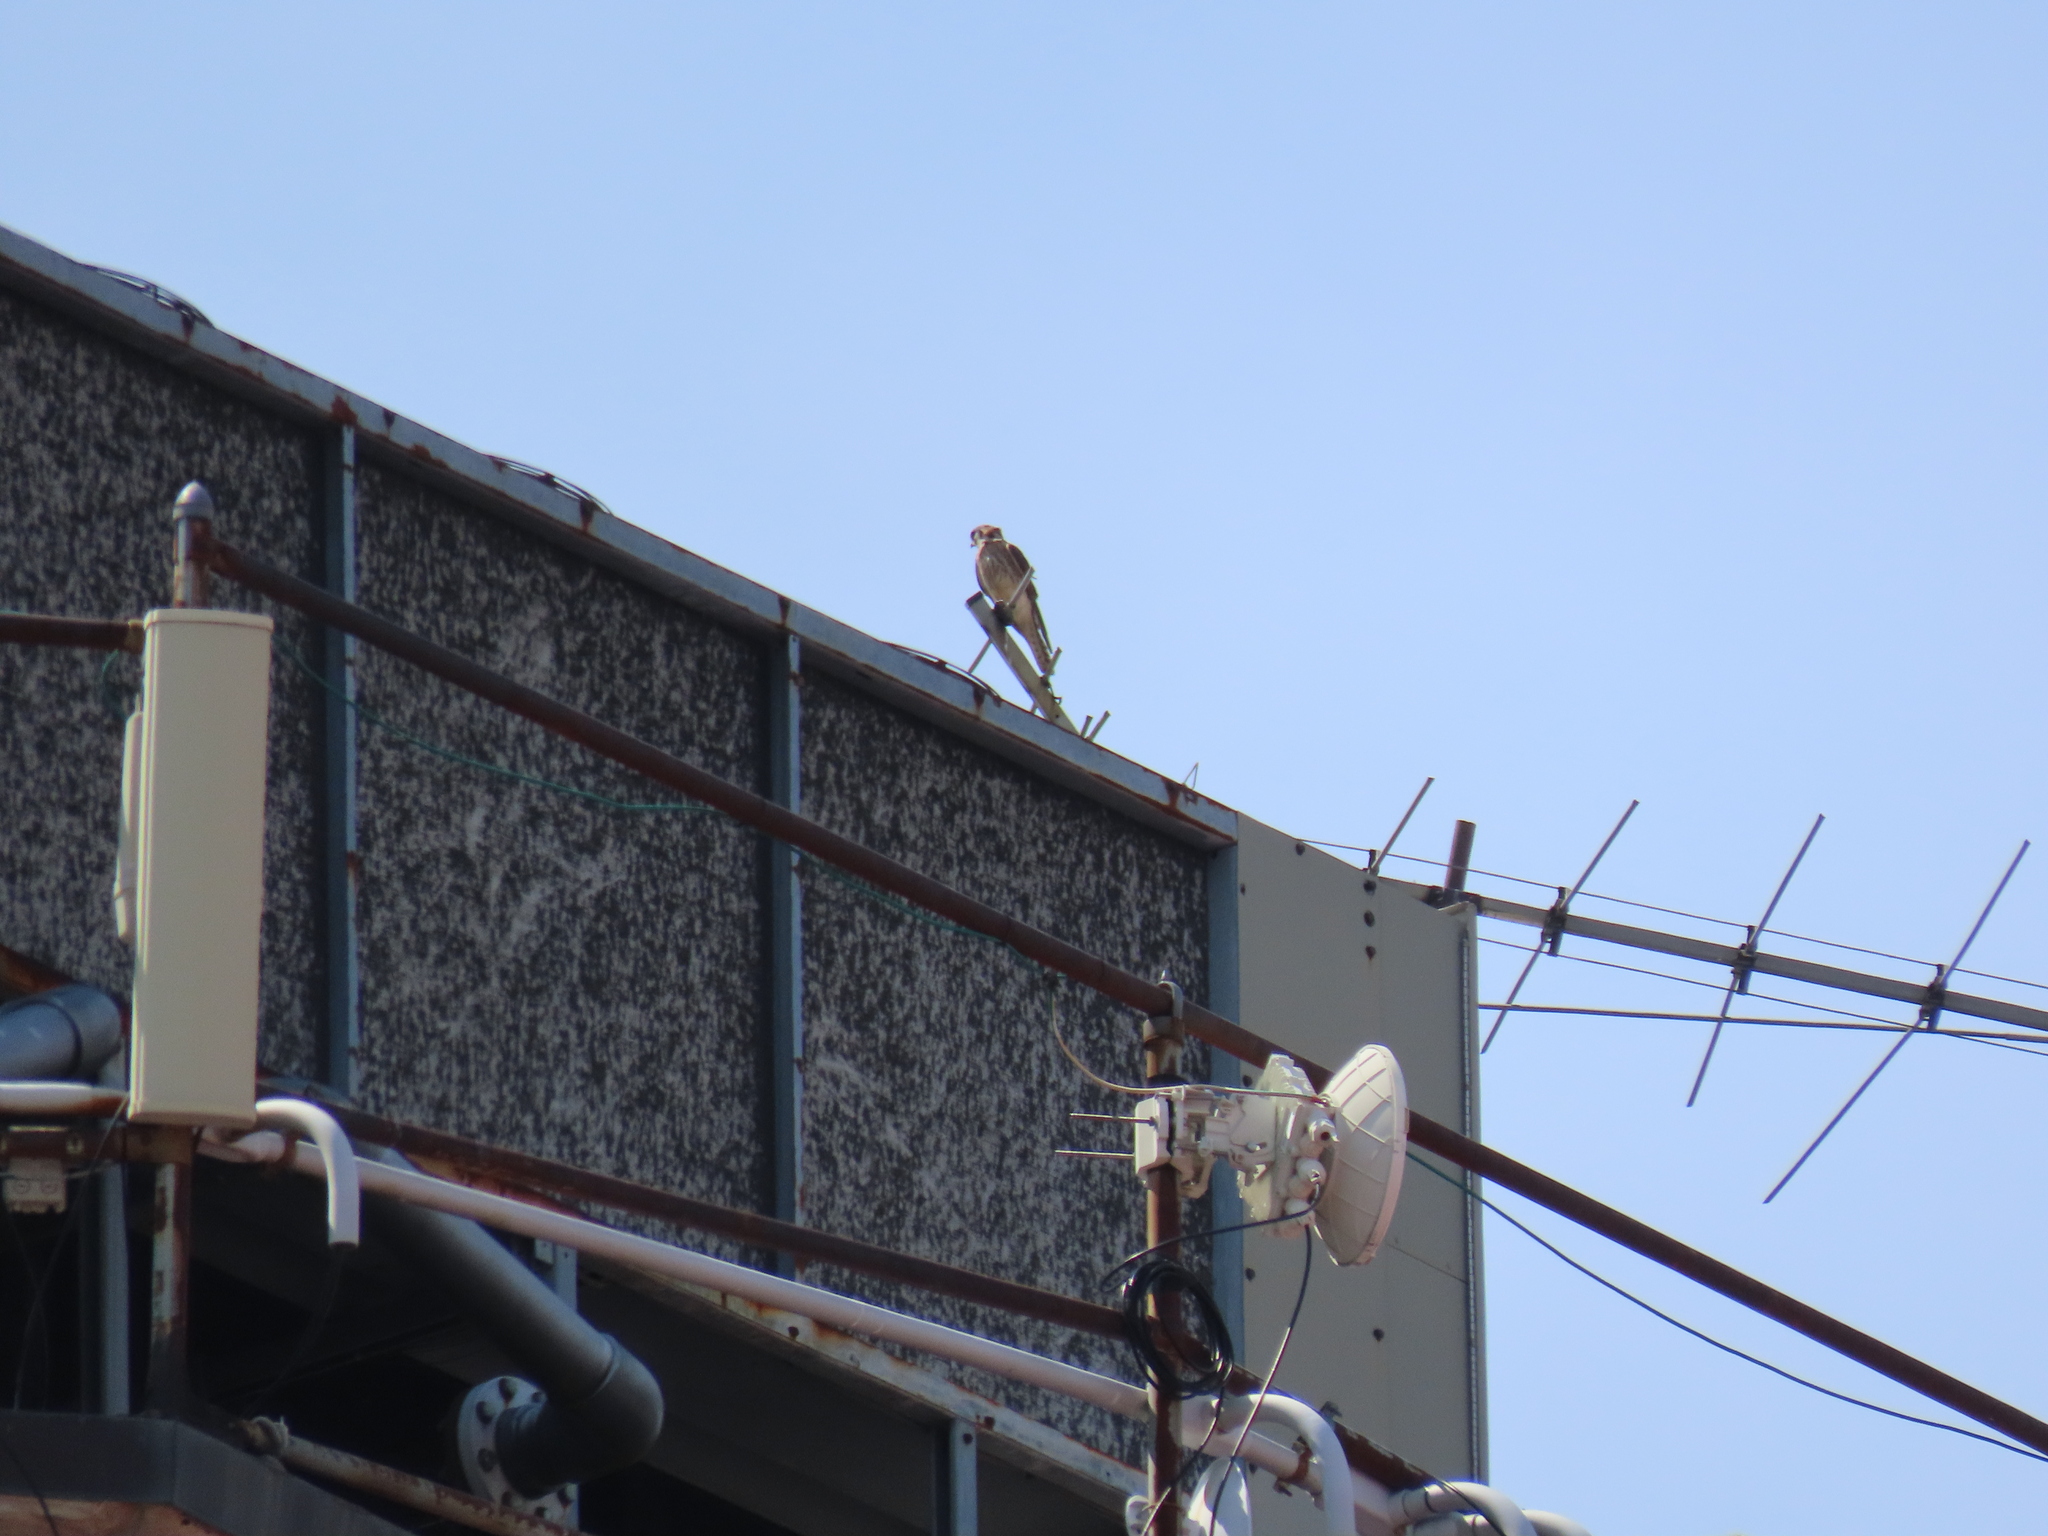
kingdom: Animalia
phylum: Chordata
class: Aves
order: Falconiformes
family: Falconidae
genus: Falco
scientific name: Falco sparverius
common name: American kestrel
